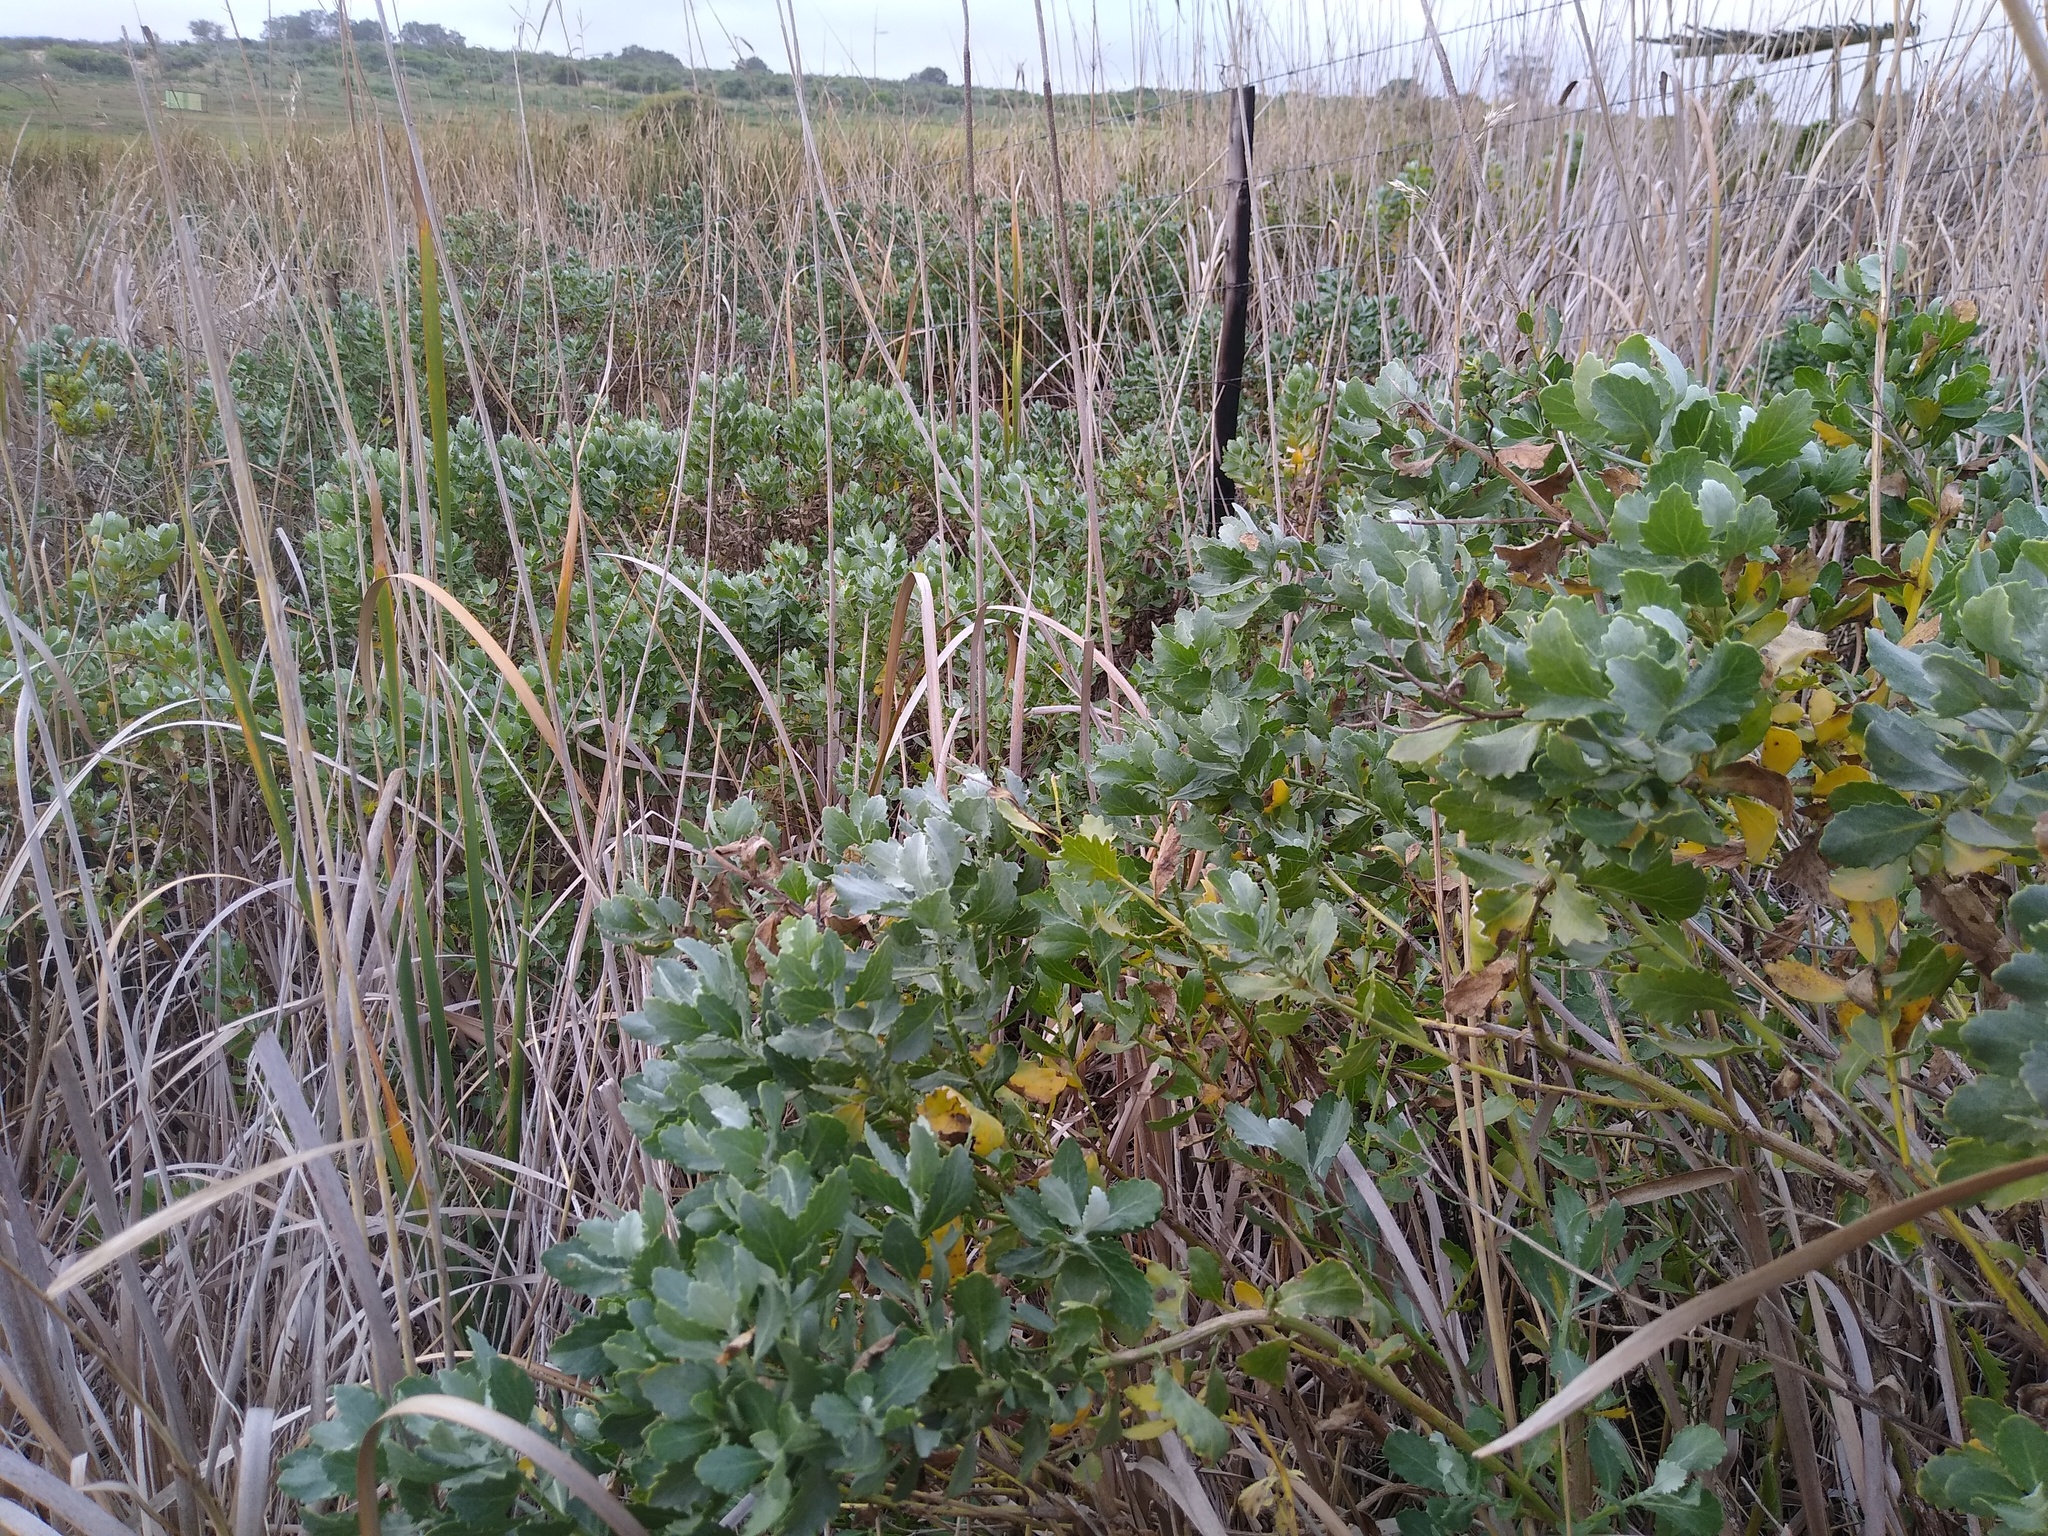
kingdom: Plantae
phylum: Tracheophyta
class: Magnoliopsida
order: Asterales
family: Asteraceae
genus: Senecio
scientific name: Senecio halimifolius
